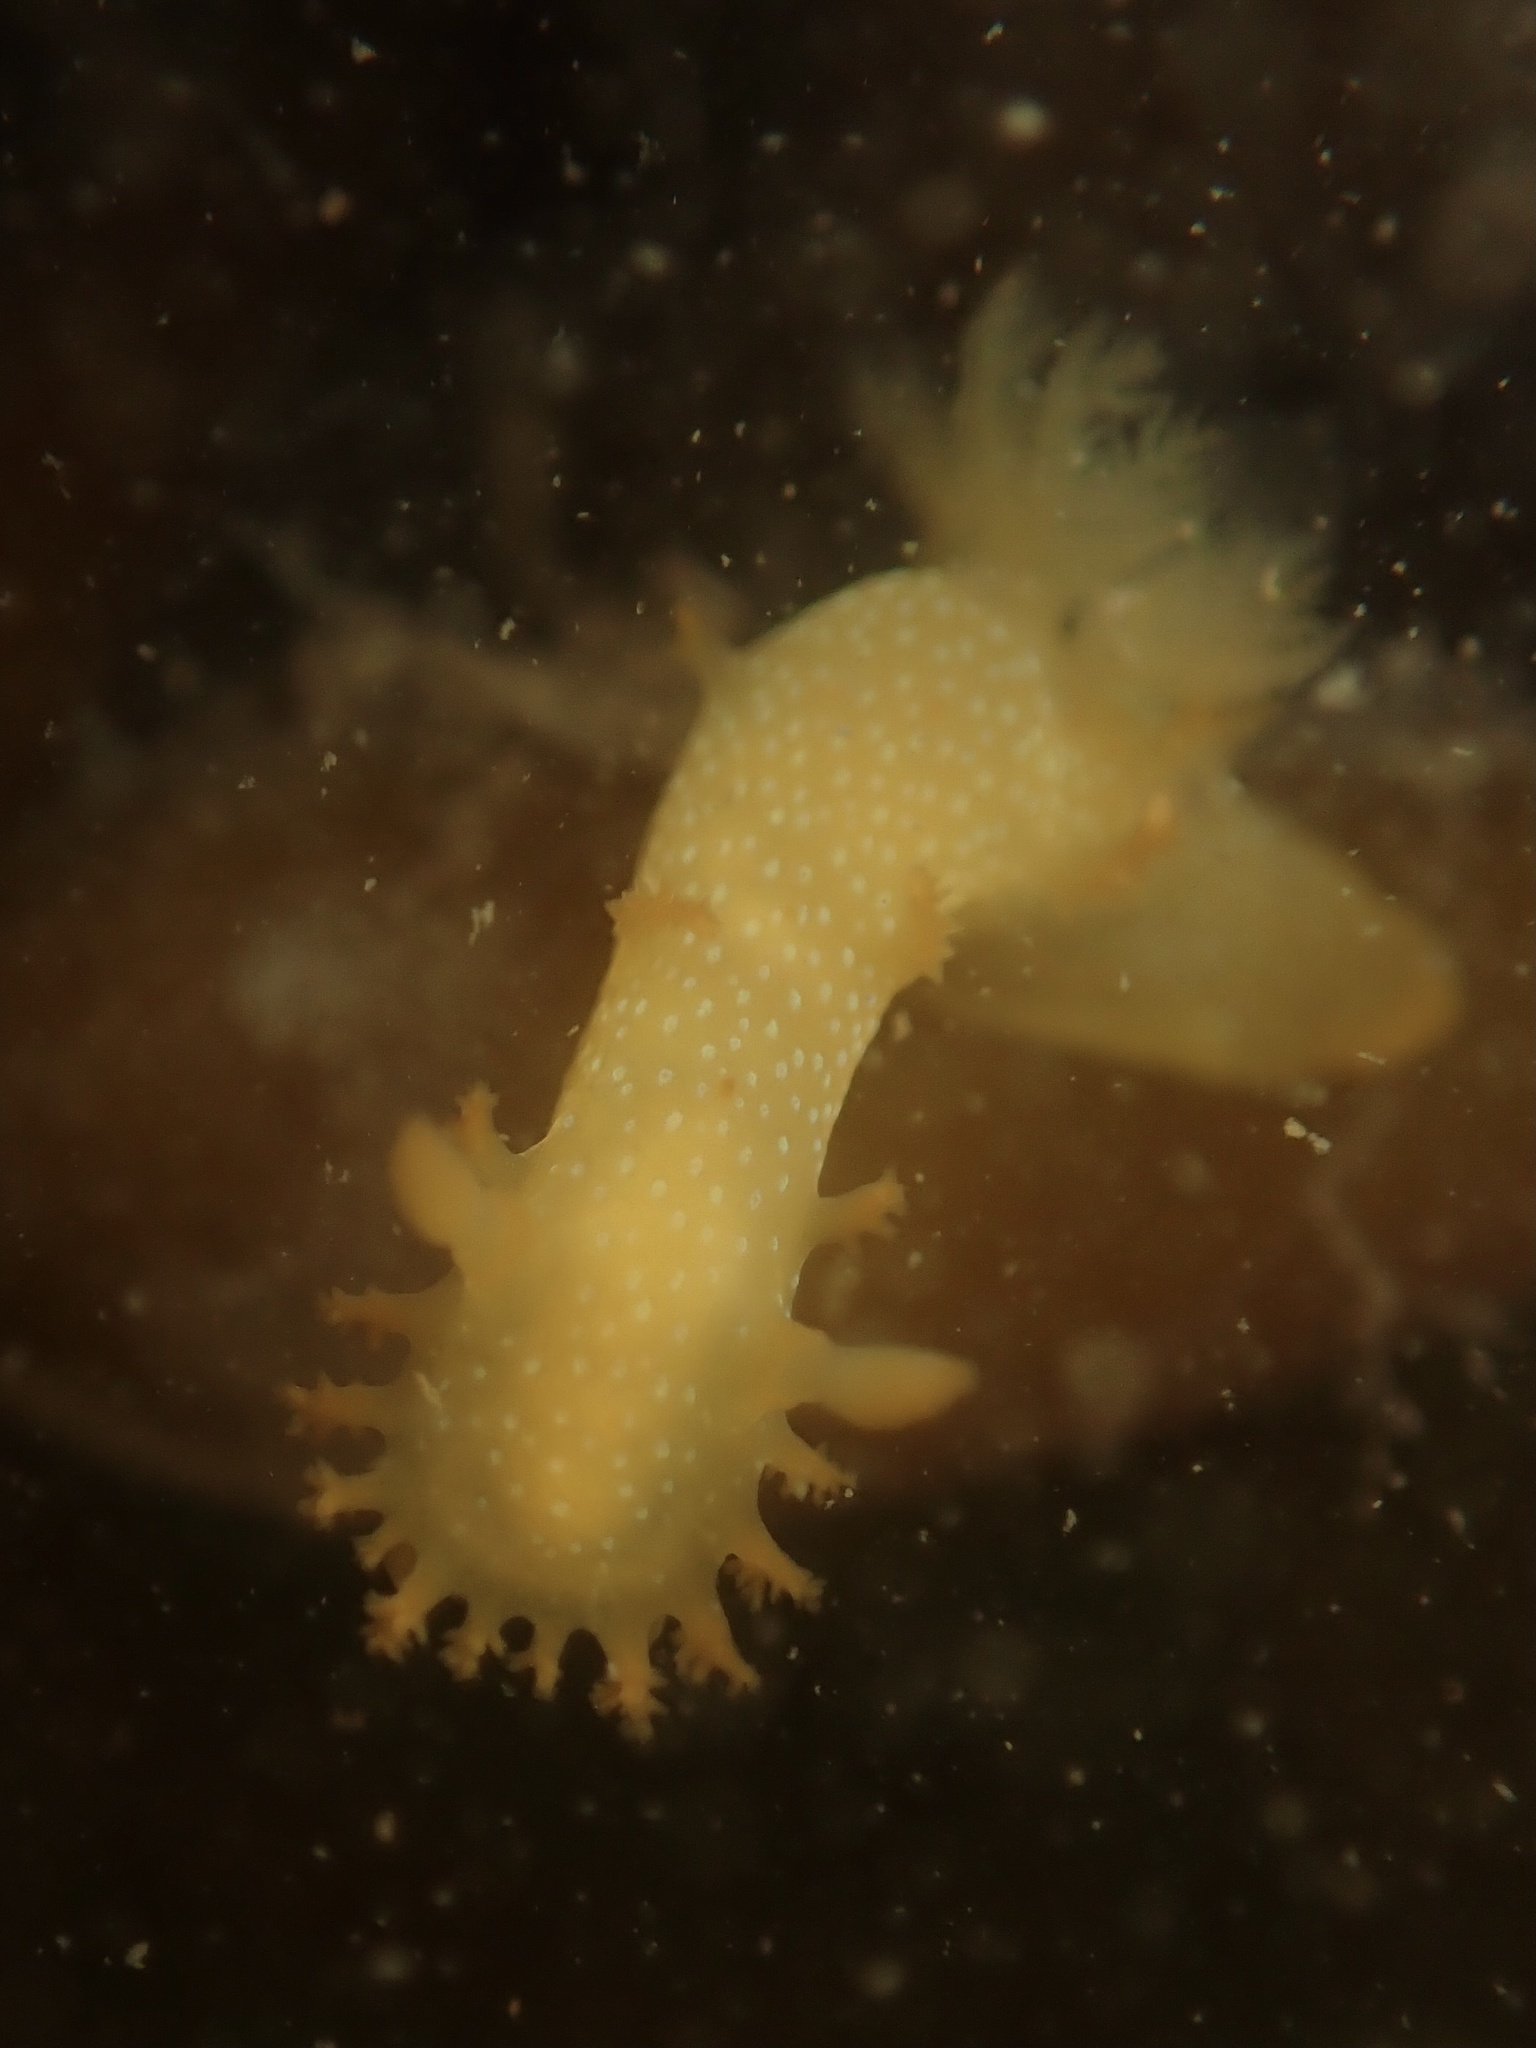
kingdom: Animalia
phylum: Mollusca
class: Gastropoda
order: Nudibranchia
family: Polyceridae
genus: Triopha
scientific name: Triopha maculata
